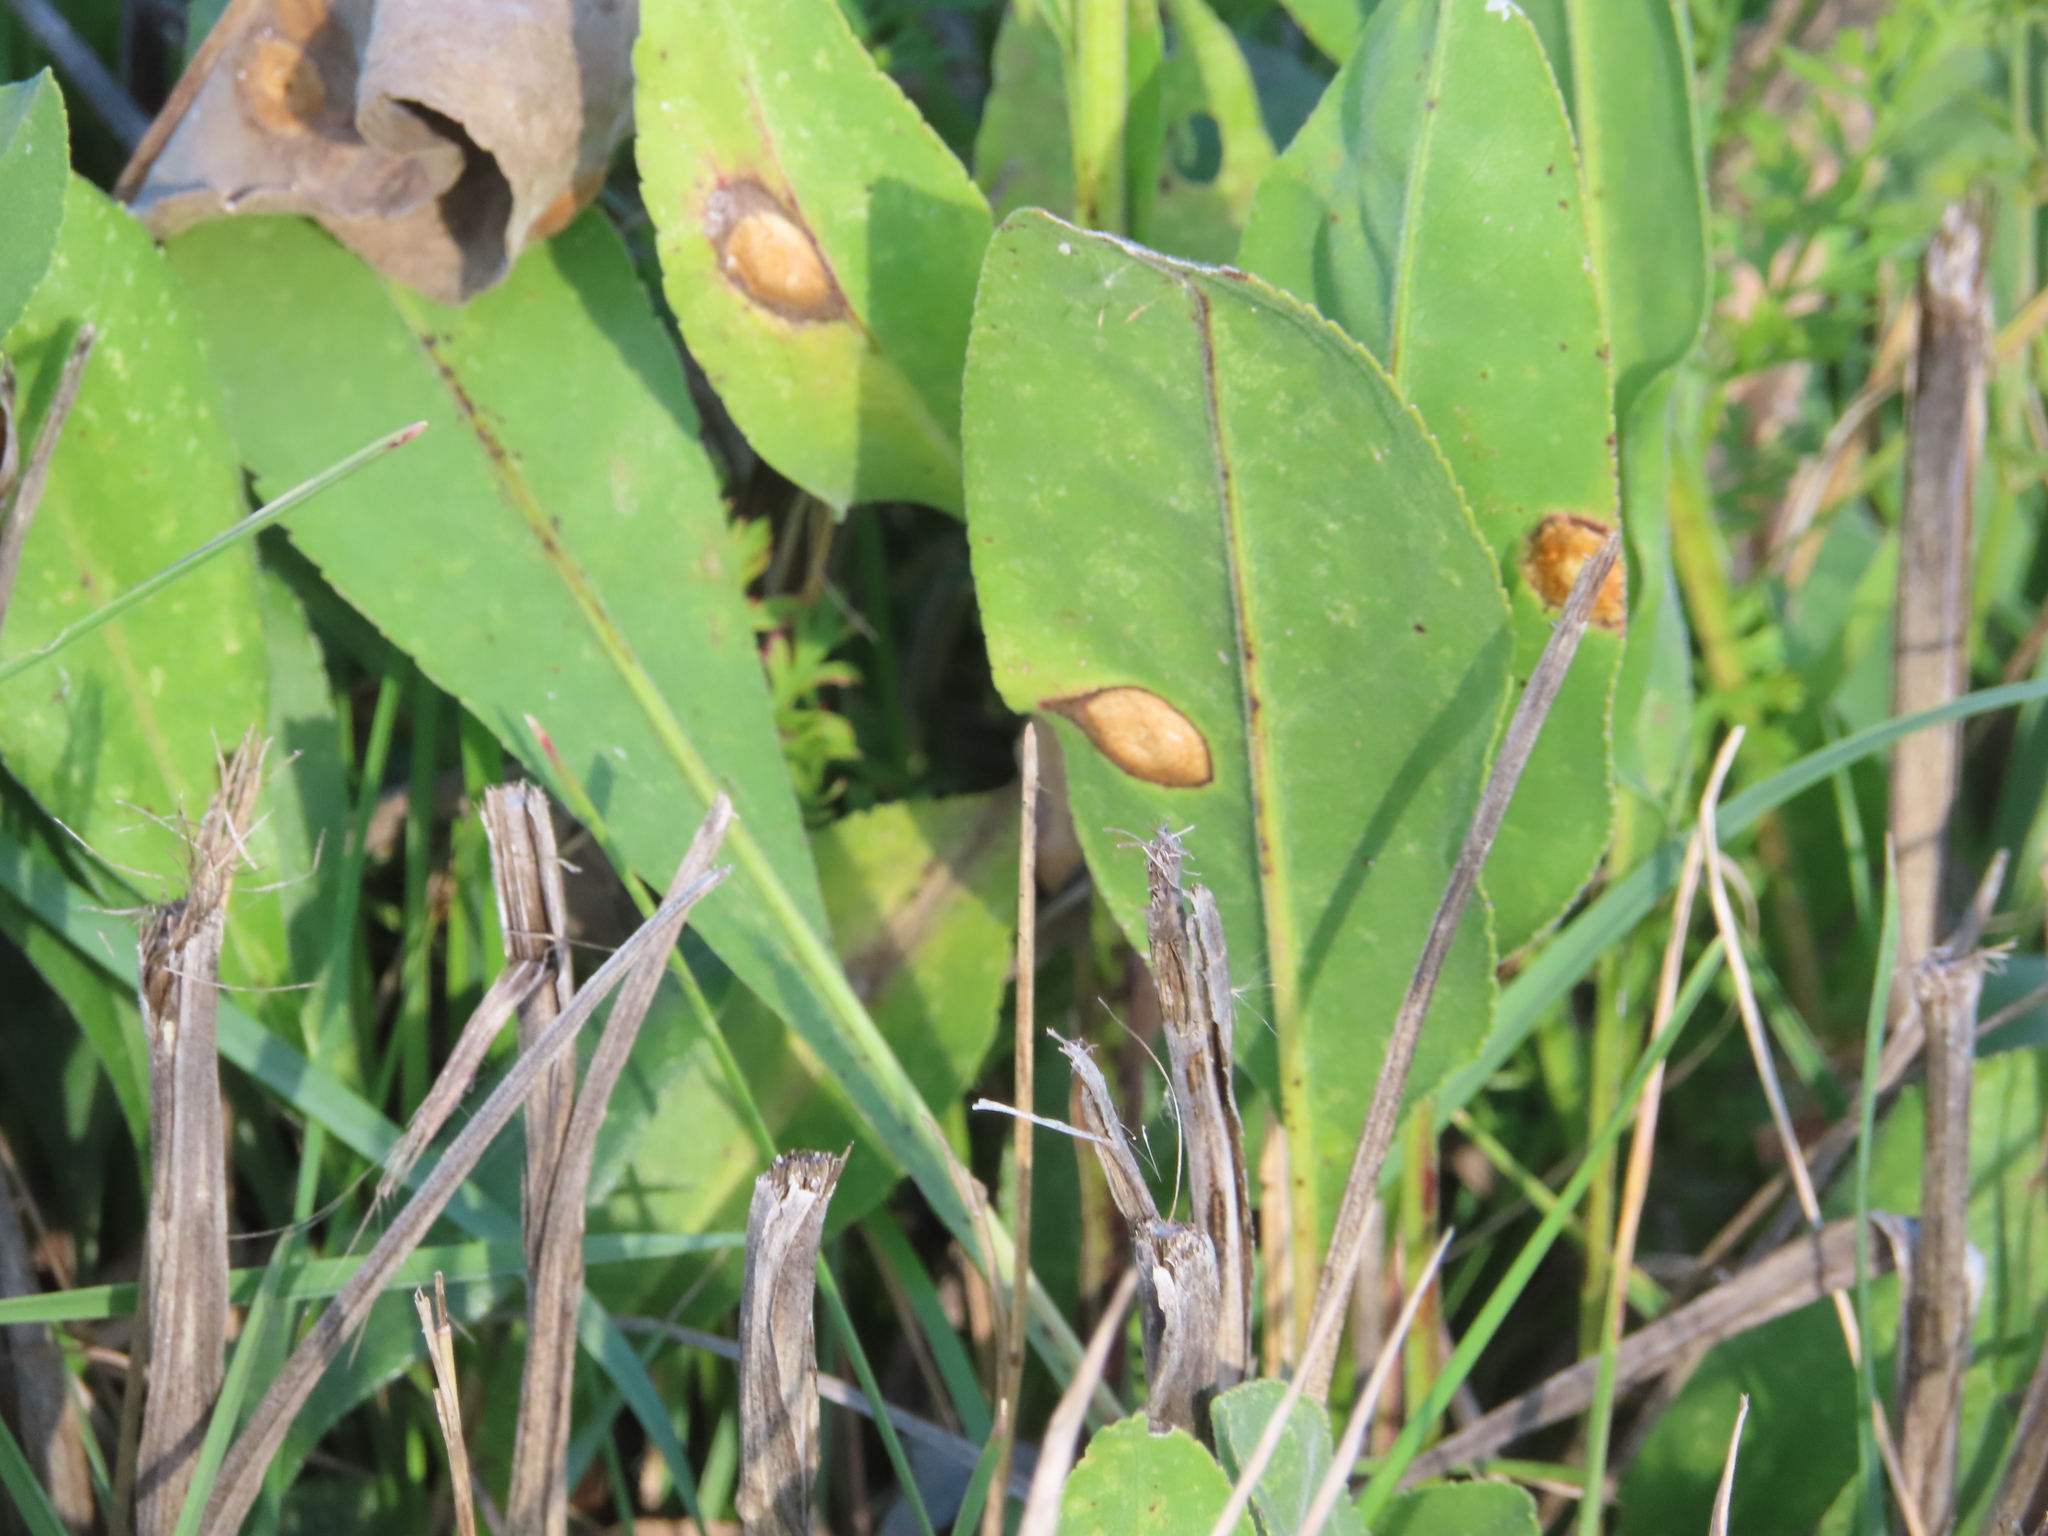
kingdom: Animalia
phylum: Arthropoda
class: Insecta
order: Diptera
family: Cecidomyiidae
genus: Asteromyia
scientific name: Asteromyia carbonifera
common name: Carbonifera goldenrod gall midge
